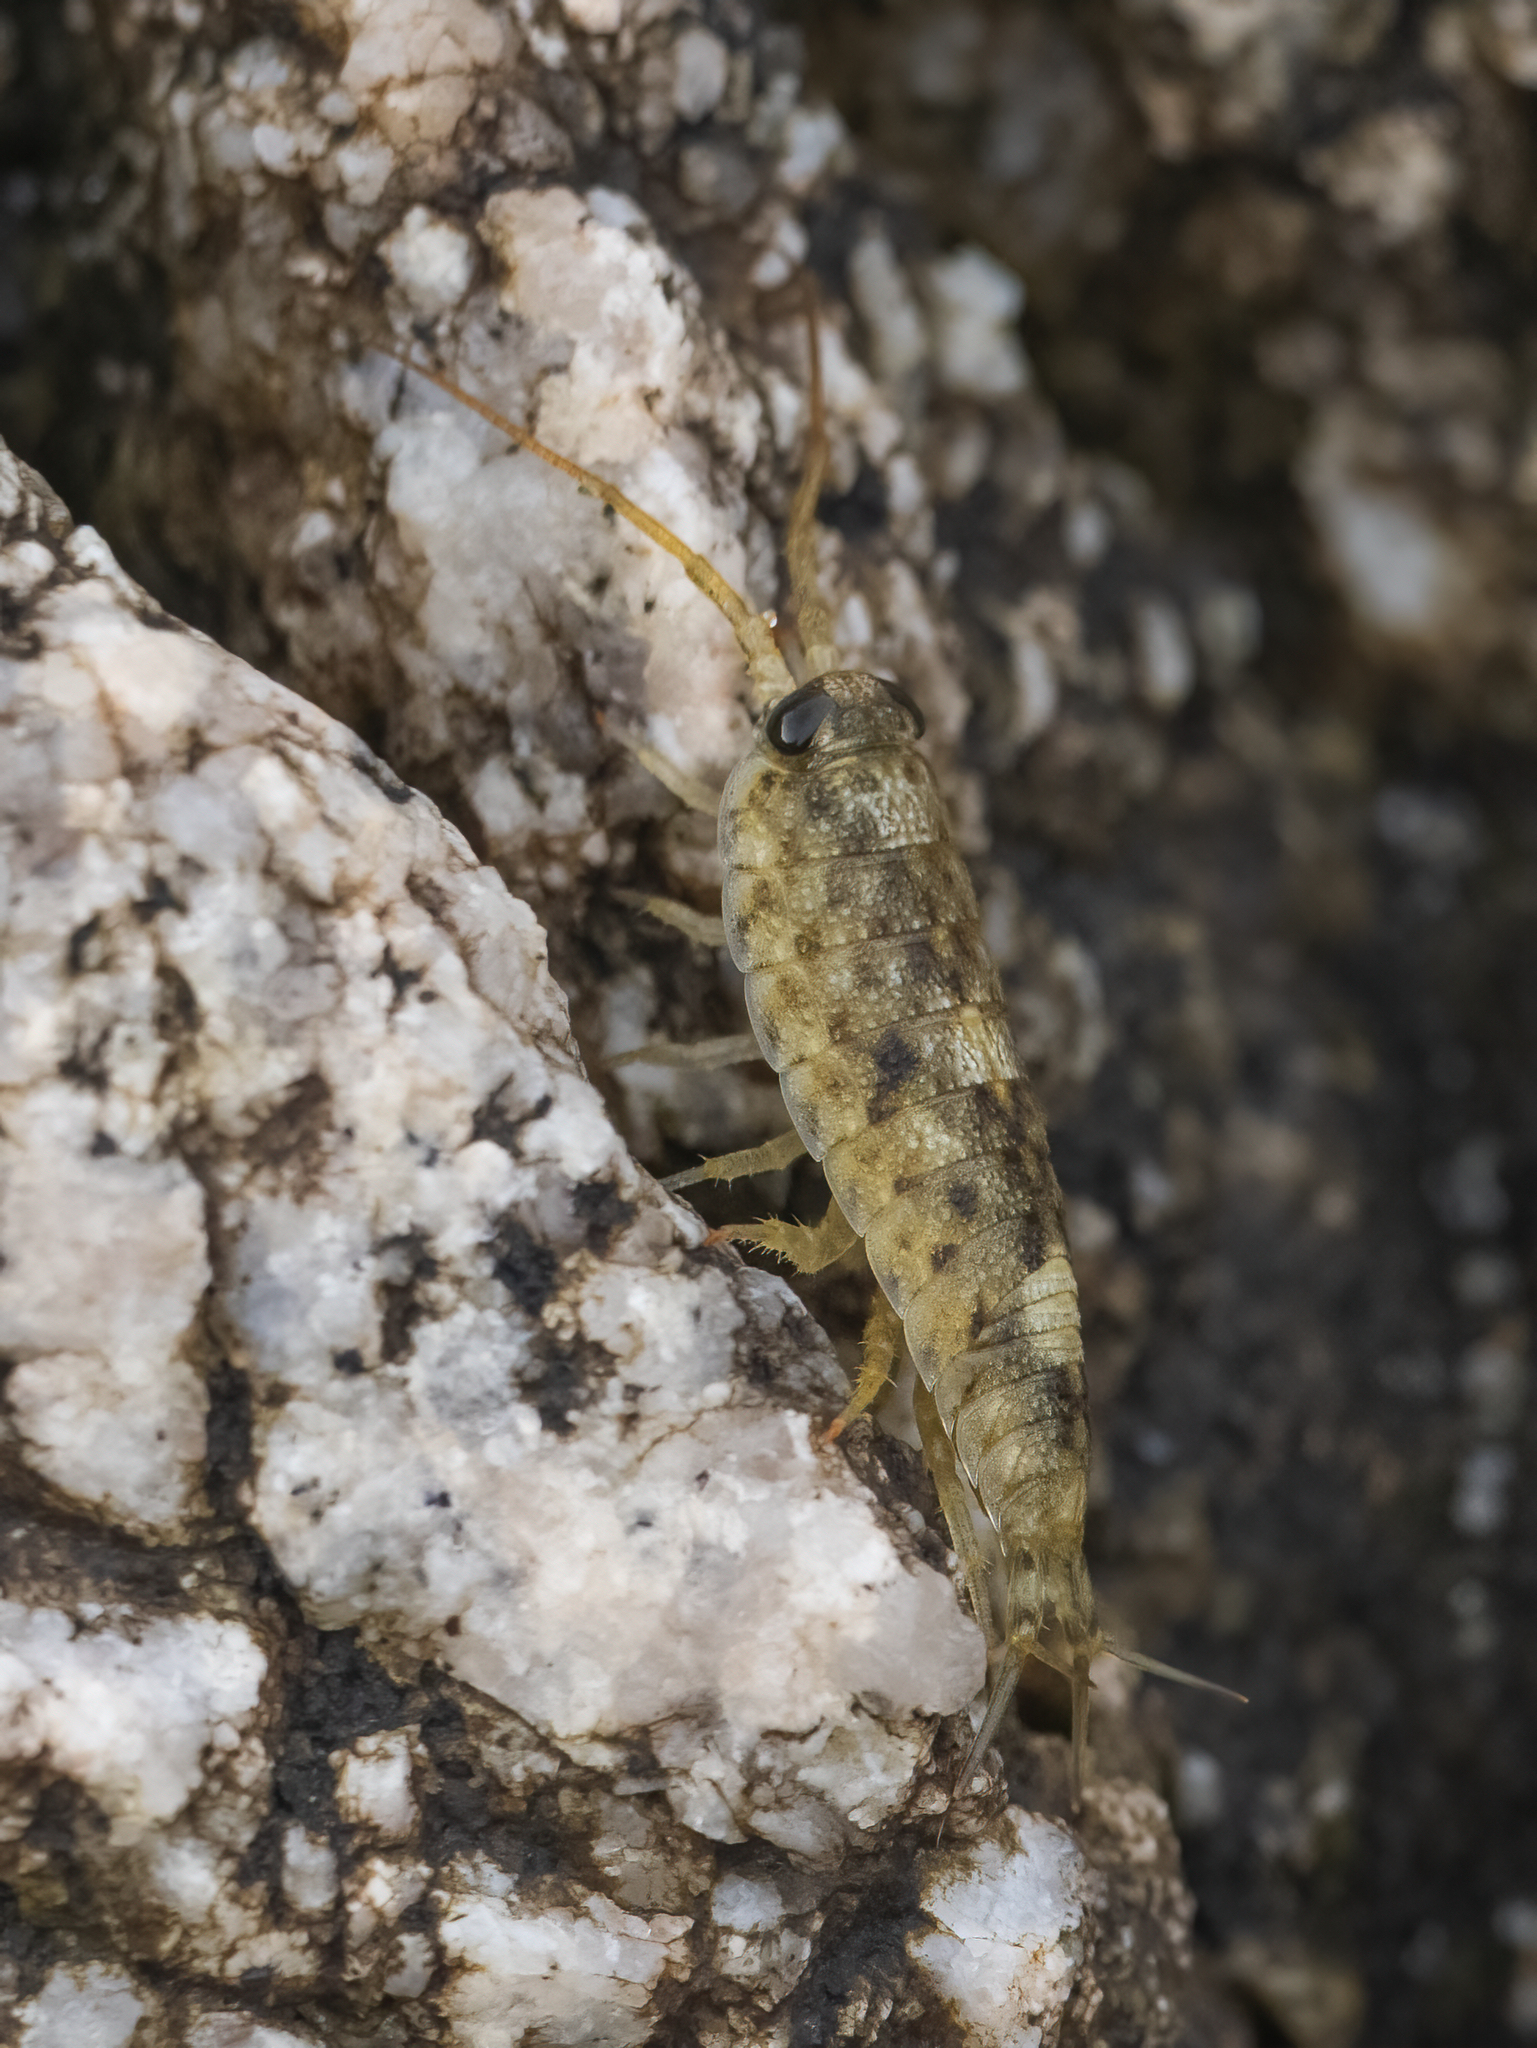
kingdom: Animalia
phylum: Arthropoda
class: Malacostraca
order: Isopoda
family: Ligiidae
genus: Ligia
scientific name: Ligia occidentalis
